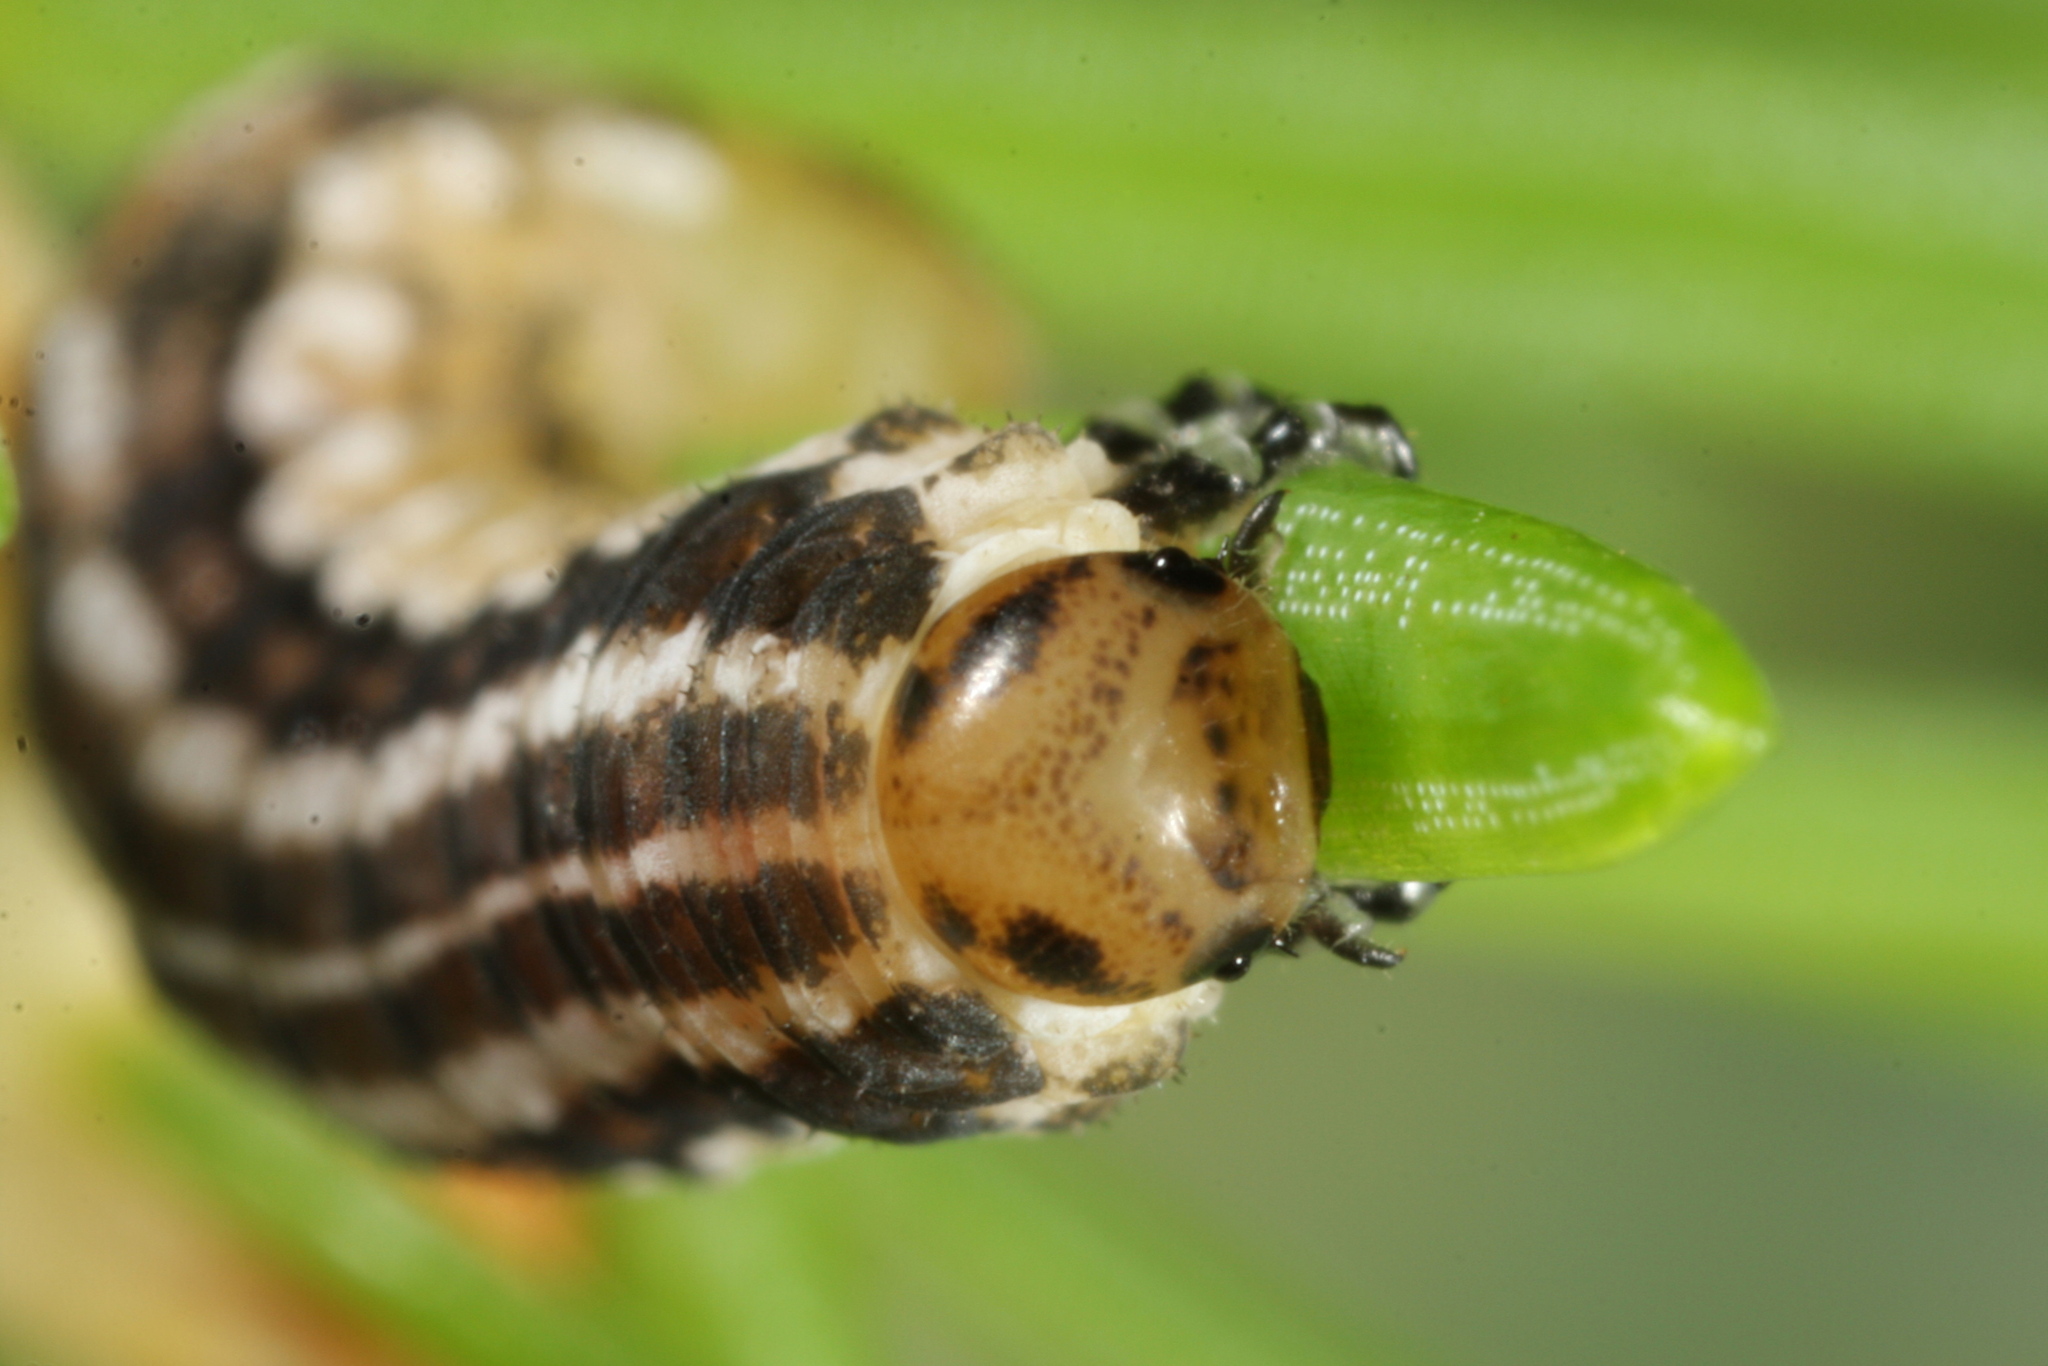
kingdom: Animalia
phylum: Arthropoda
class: Insecta
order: Hymenoptera
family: Diprionidae
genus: Gilpinia
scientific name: Gilpinia abieticola
